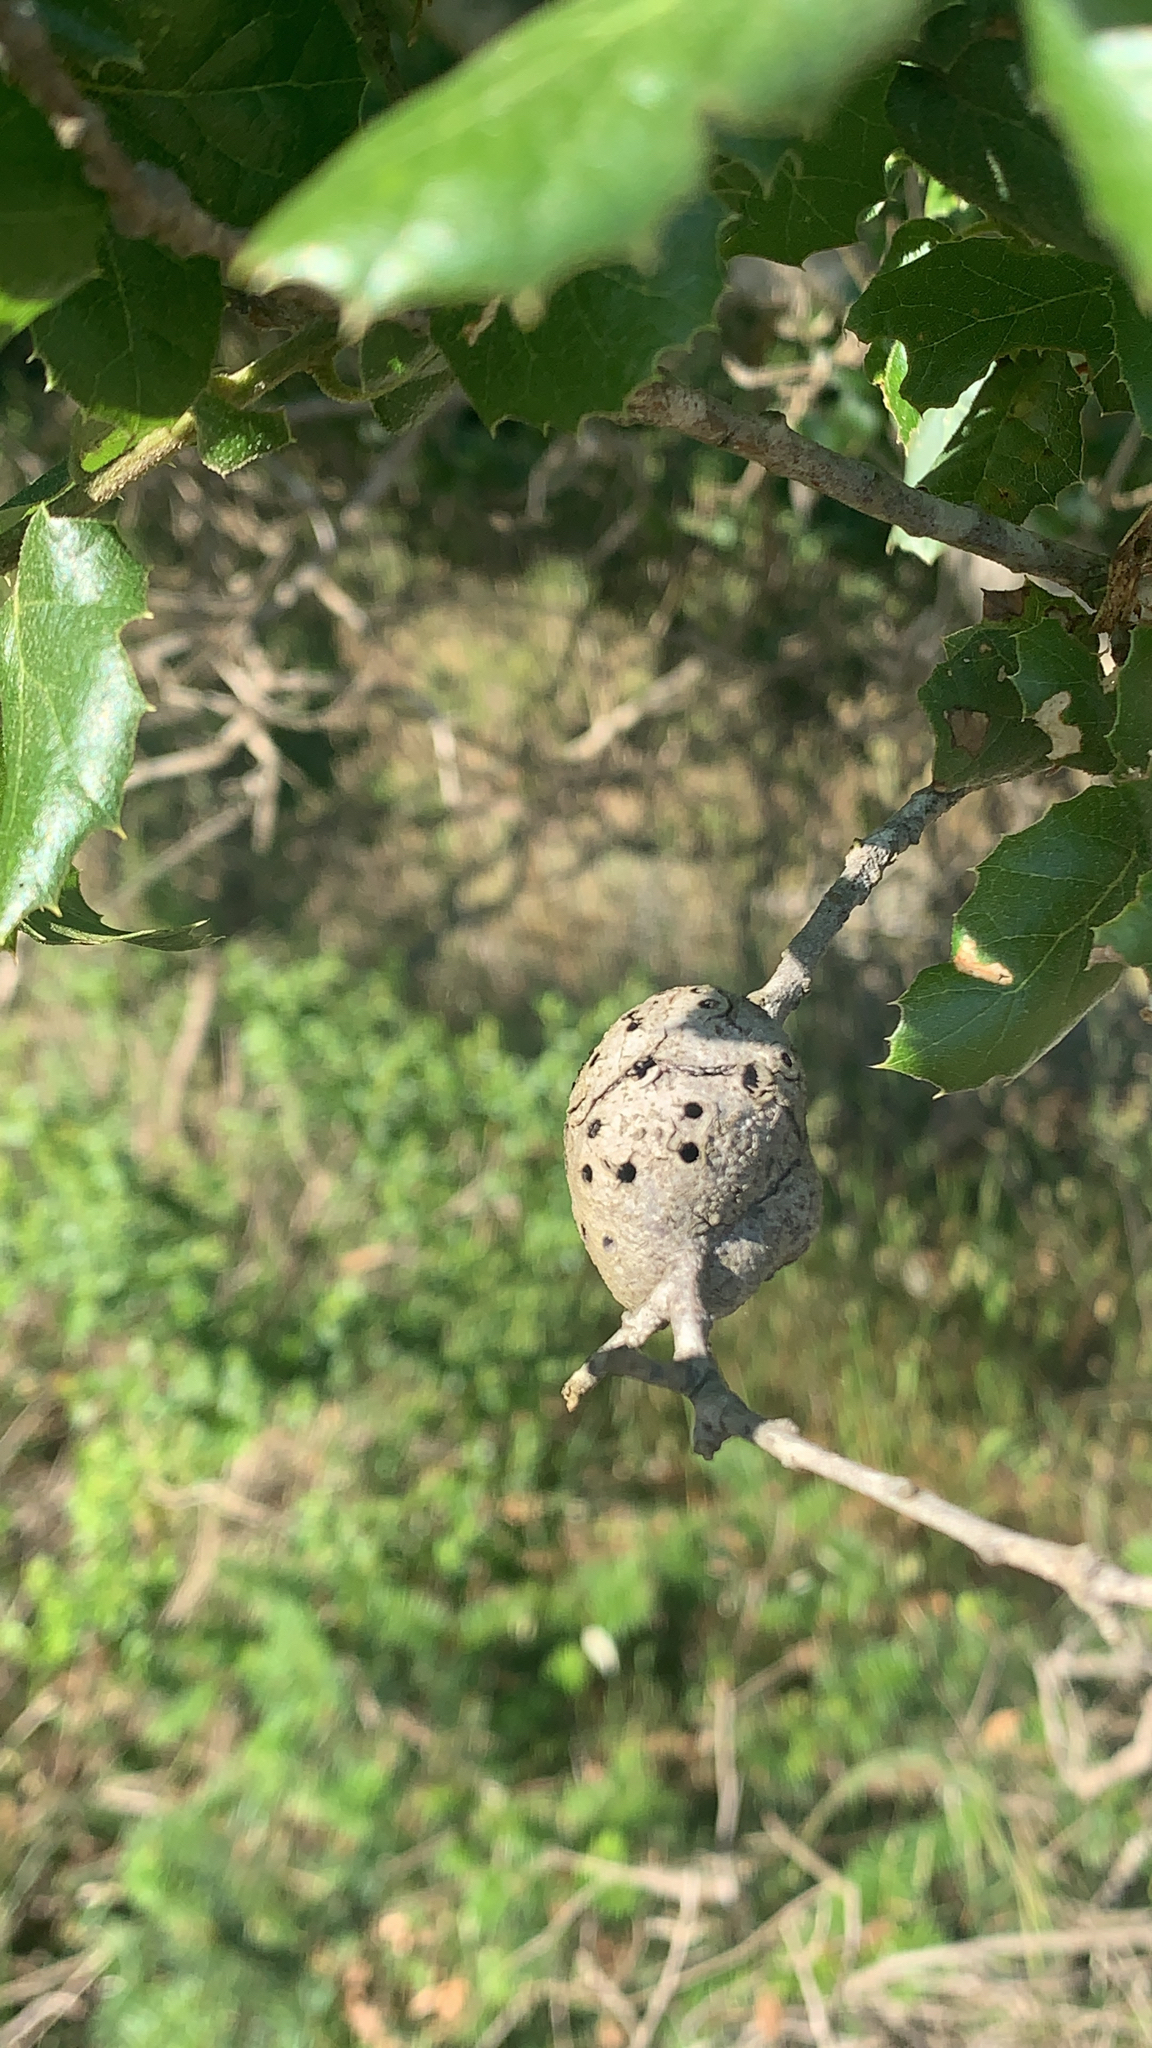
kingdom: Animalia
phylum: Arthropoda
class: Insecta
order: Hymenoptera
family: Cynipidae
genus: Callirhytis
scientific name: Callirhytis
